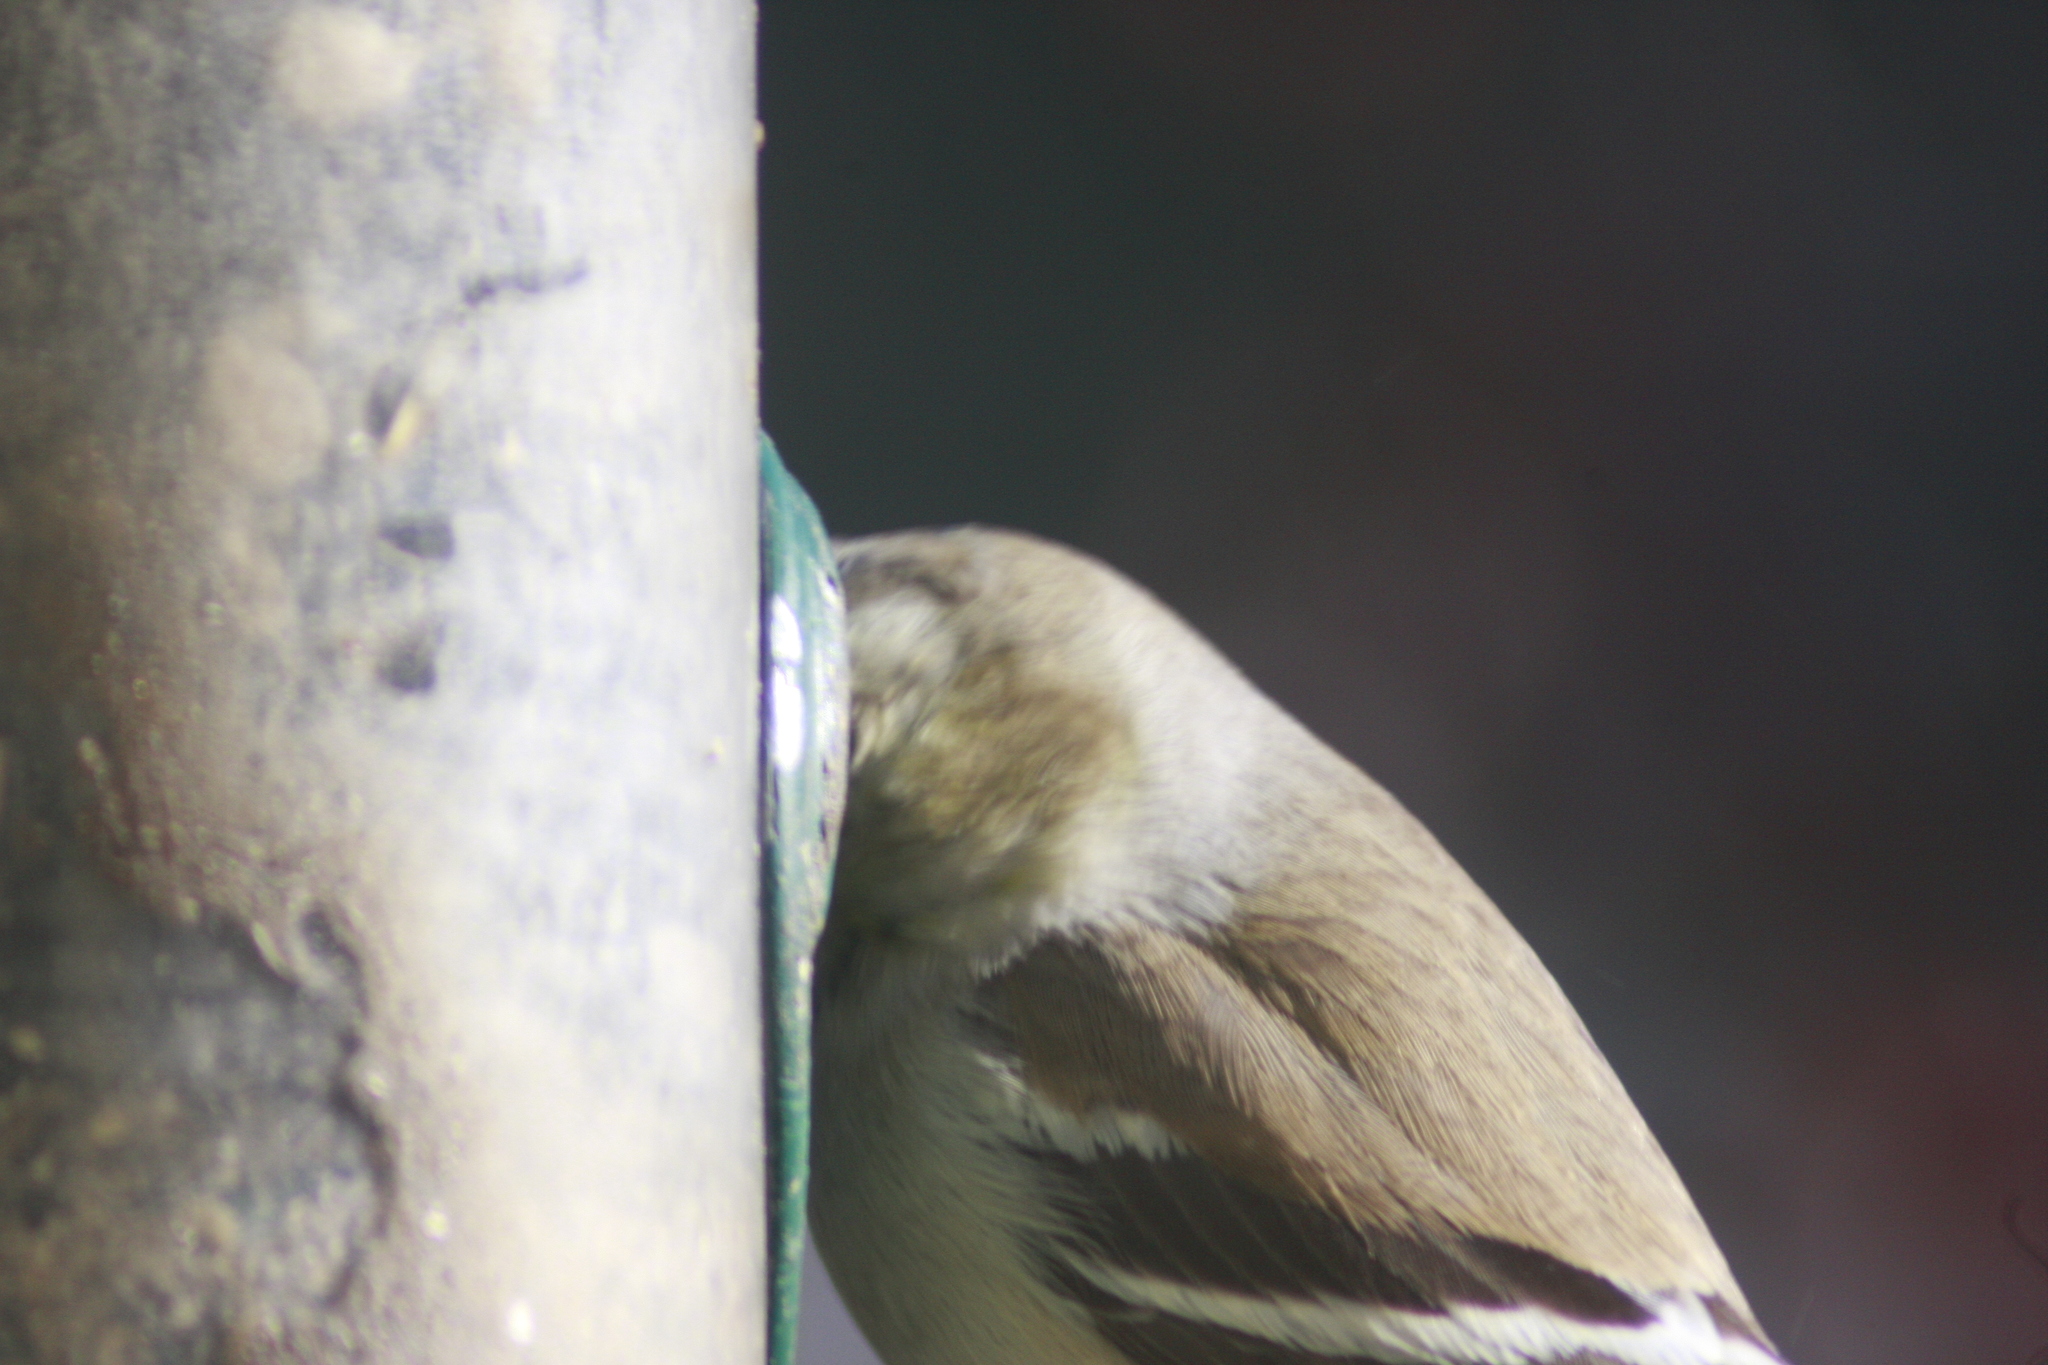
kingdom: Animalia
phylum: Chordata
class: Aves
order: Passeriformes
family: Fringillidae
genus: Spinus
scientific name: Spinus tristis
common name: American goldfinch
